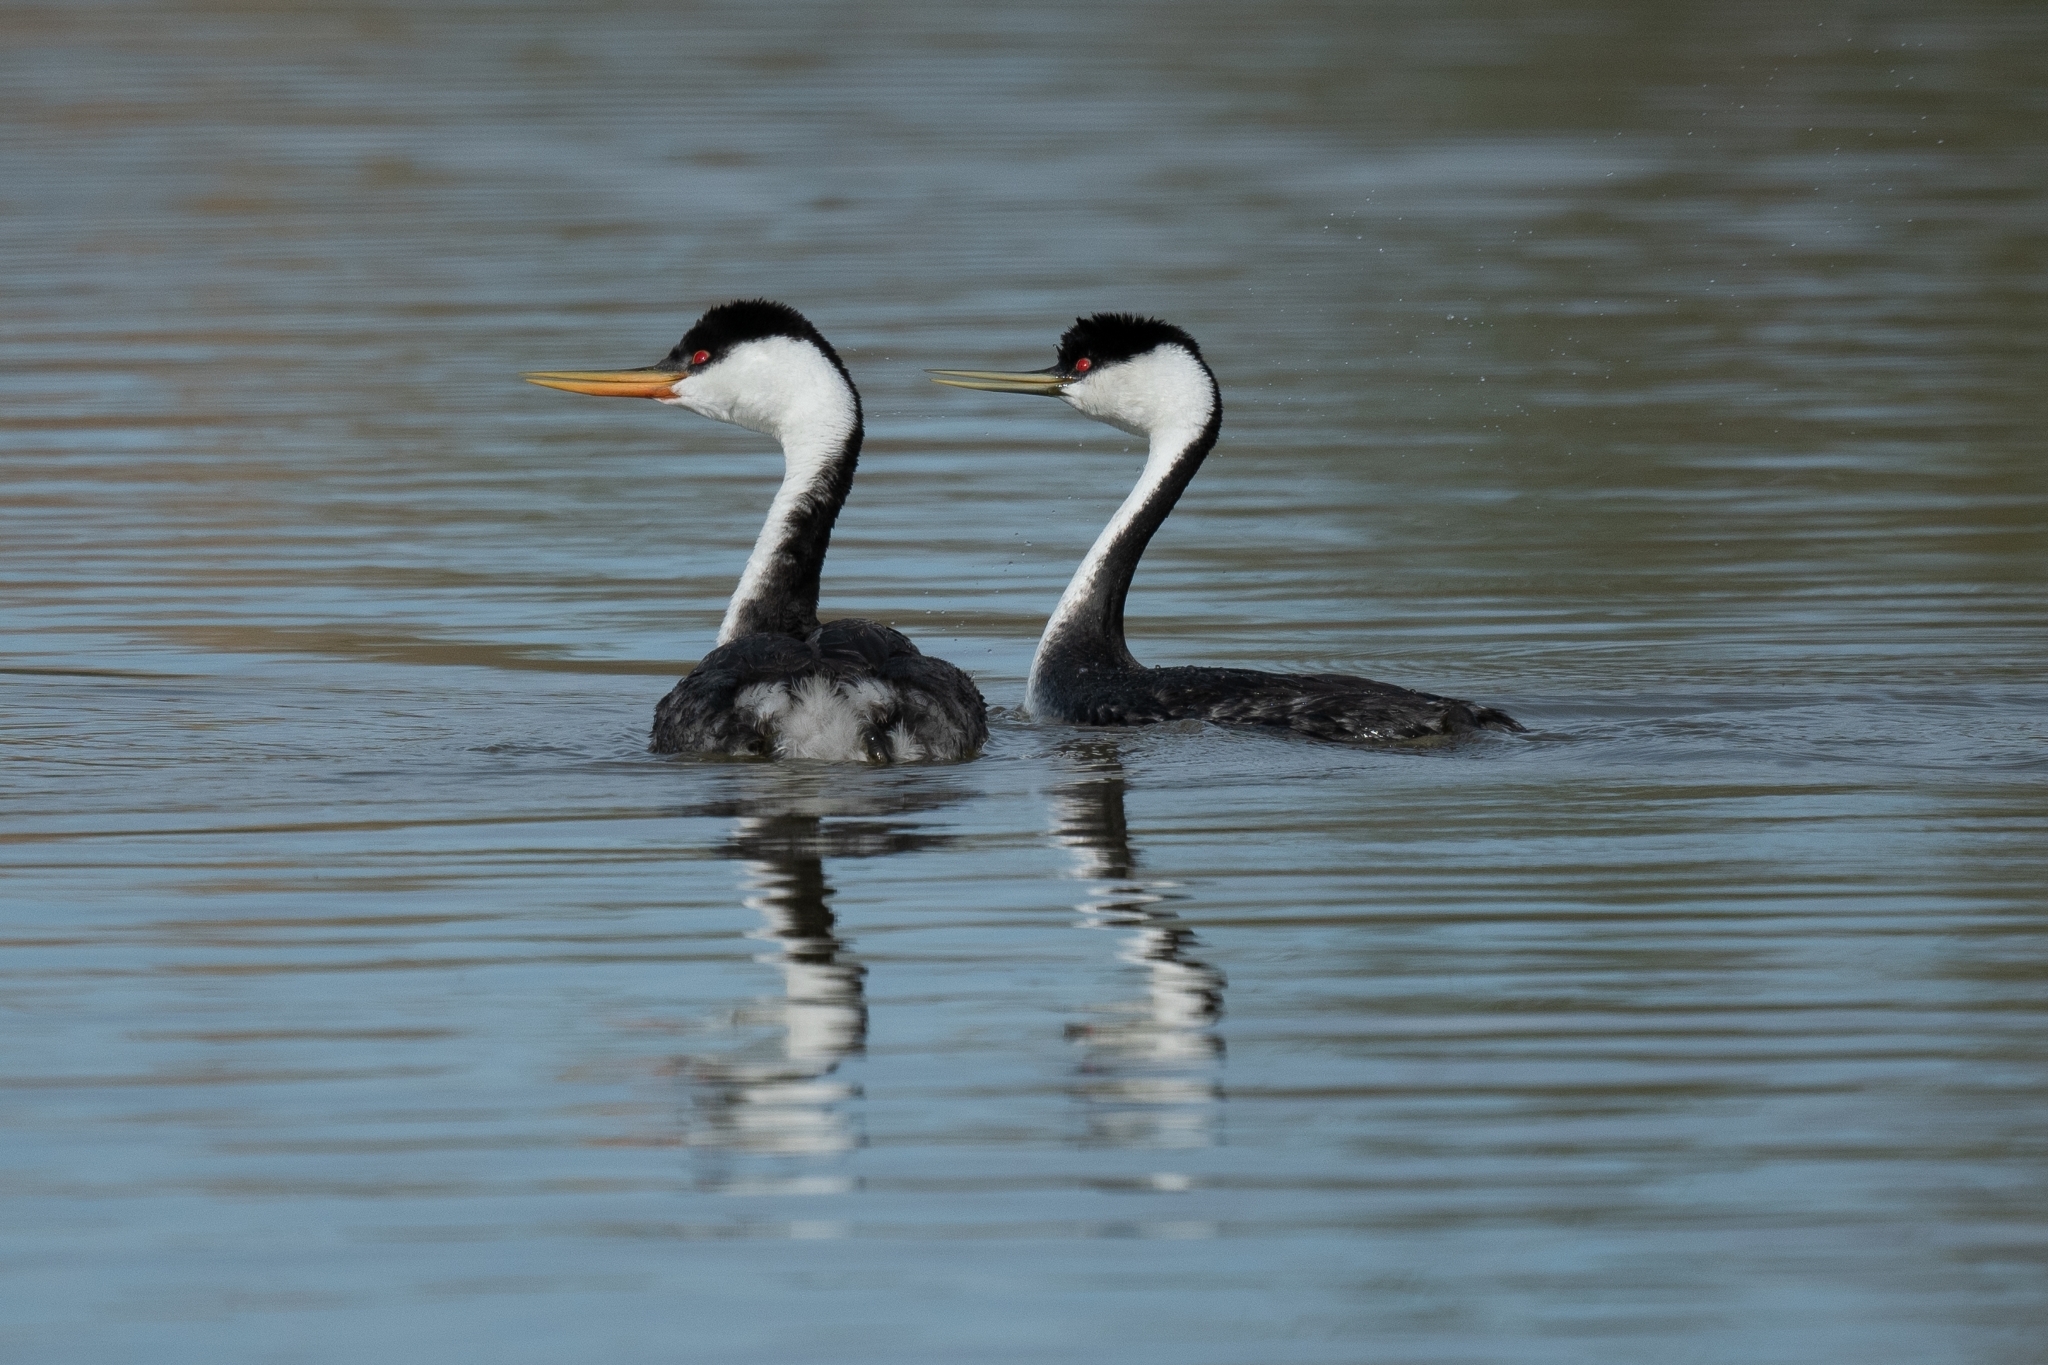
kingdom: Animalia
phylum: Chordata
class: Aves
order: Podicipediformes
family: Podicipedidae
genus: Aechmophorus
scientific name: Aechmophorus occidentalis
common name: Western grebe
